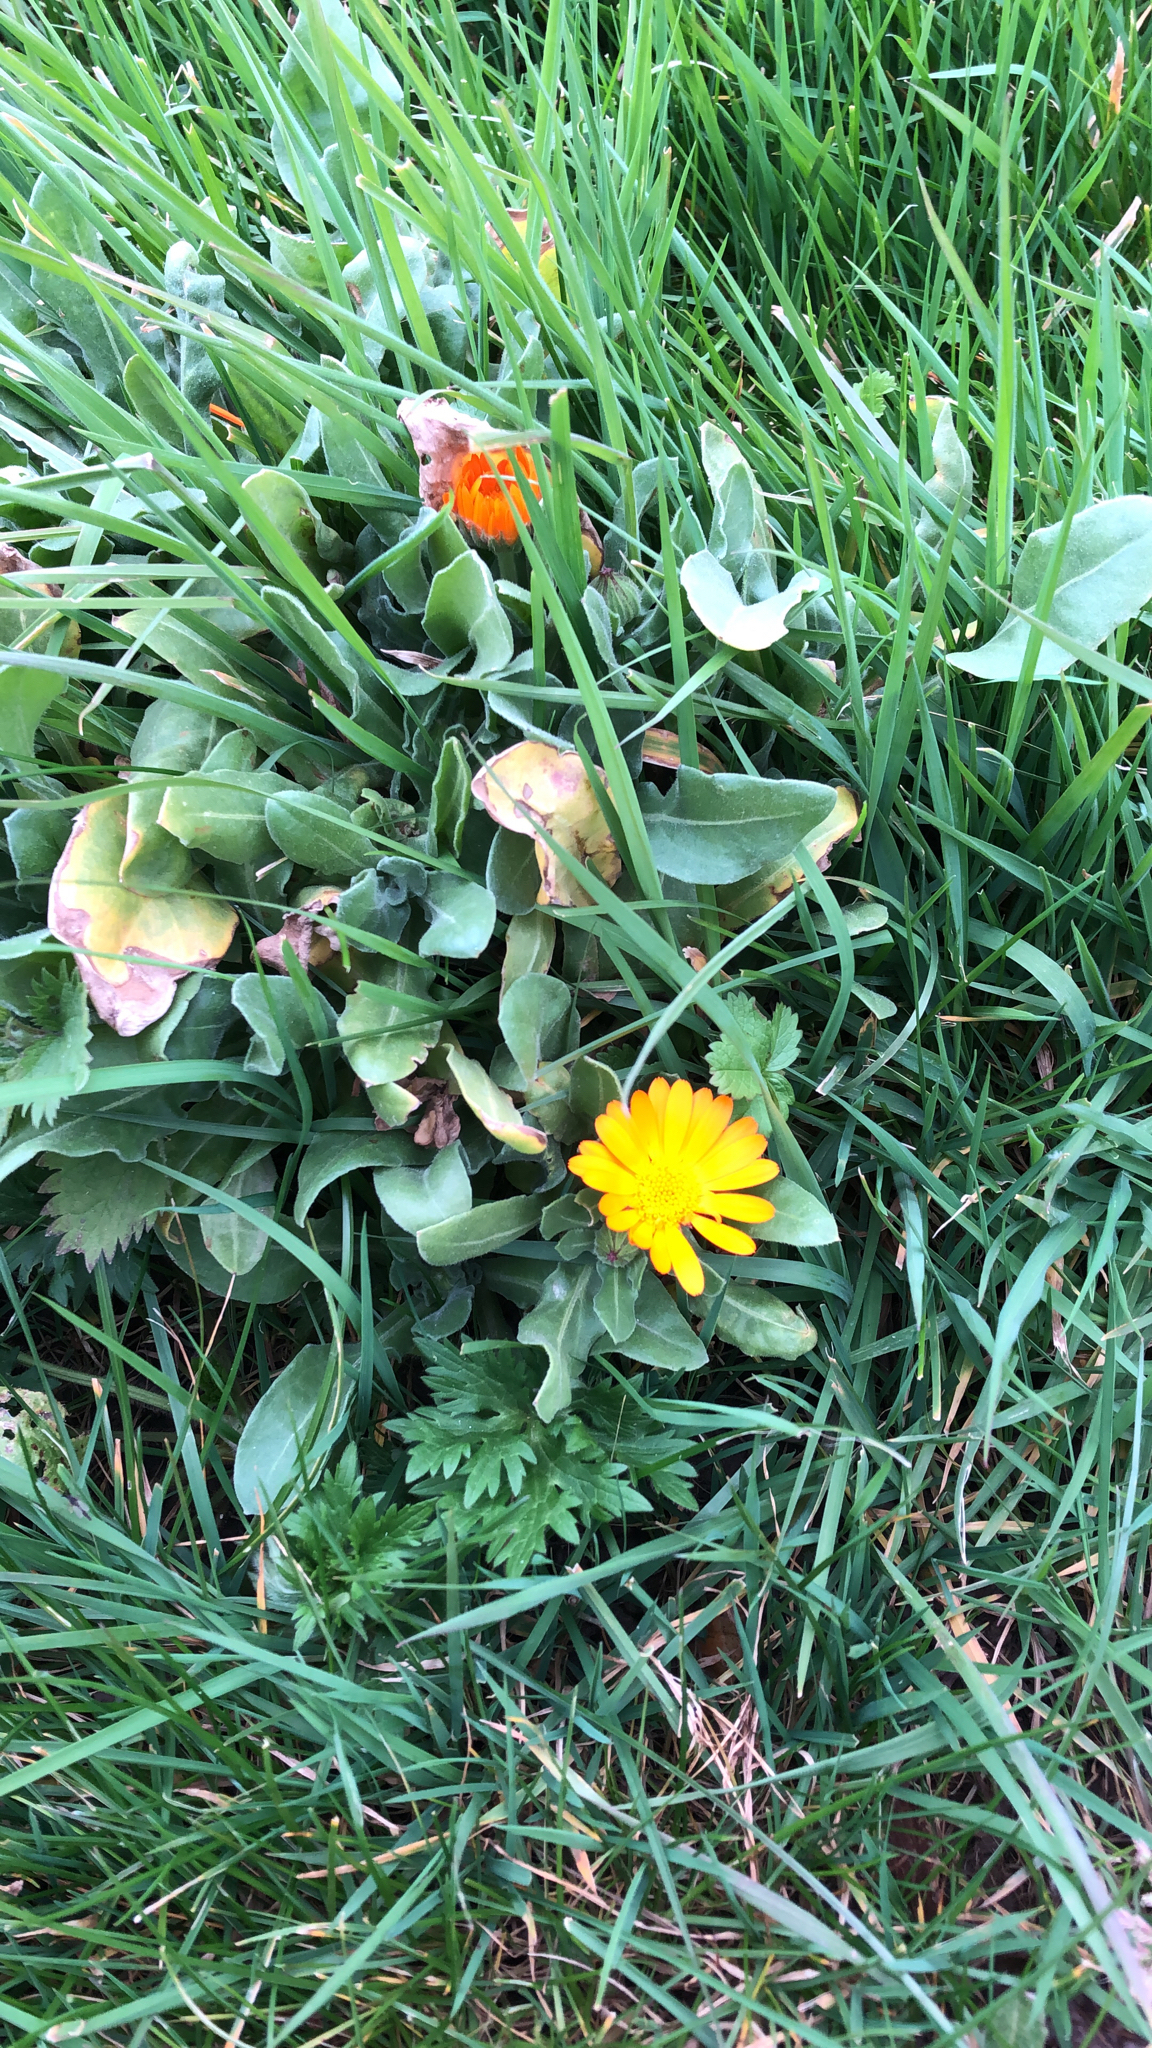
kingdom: Plantae
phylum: Tracheophyta
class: Magnoliopsida
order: Asterales
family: Asteraceae
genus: Calendula
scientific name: Calendula officinalis
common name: Pot marigold
